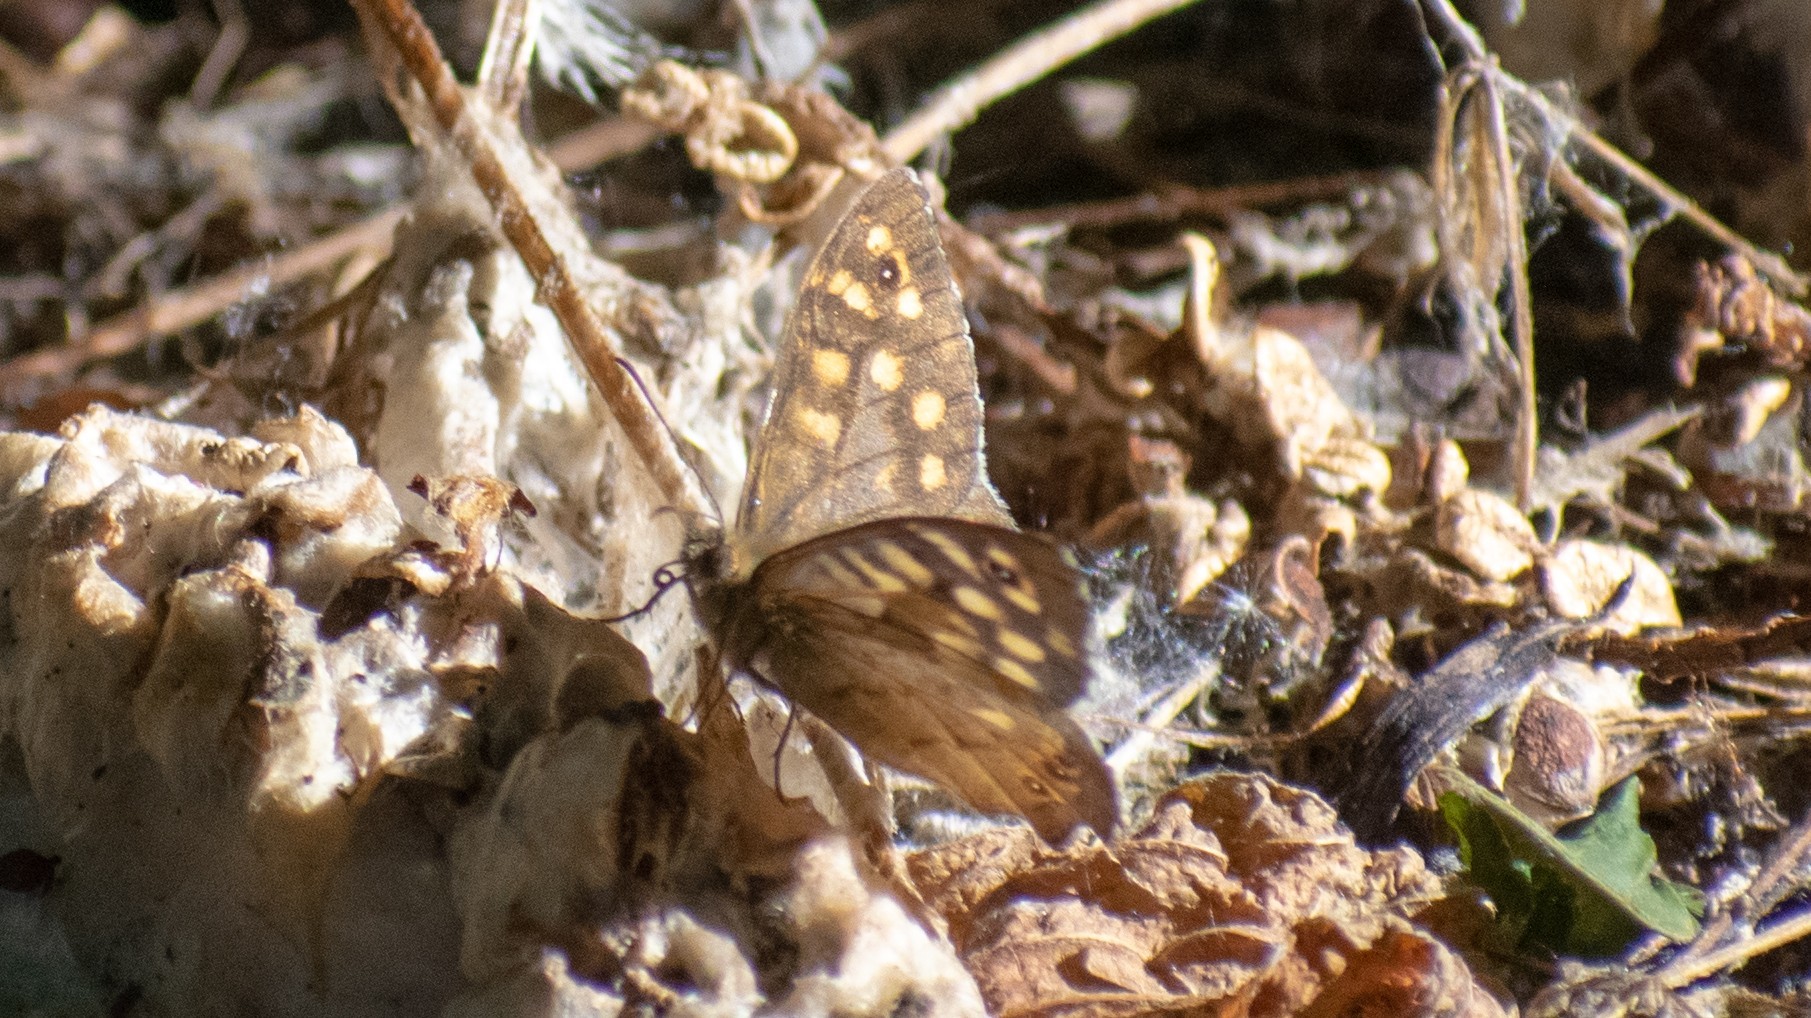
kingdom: Animalia
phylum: Arthropoda
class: Insecta
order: Lepidoptera
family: Nymphalidae
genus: Pararge
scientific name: Pararge aegeria
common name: Speckled wood
